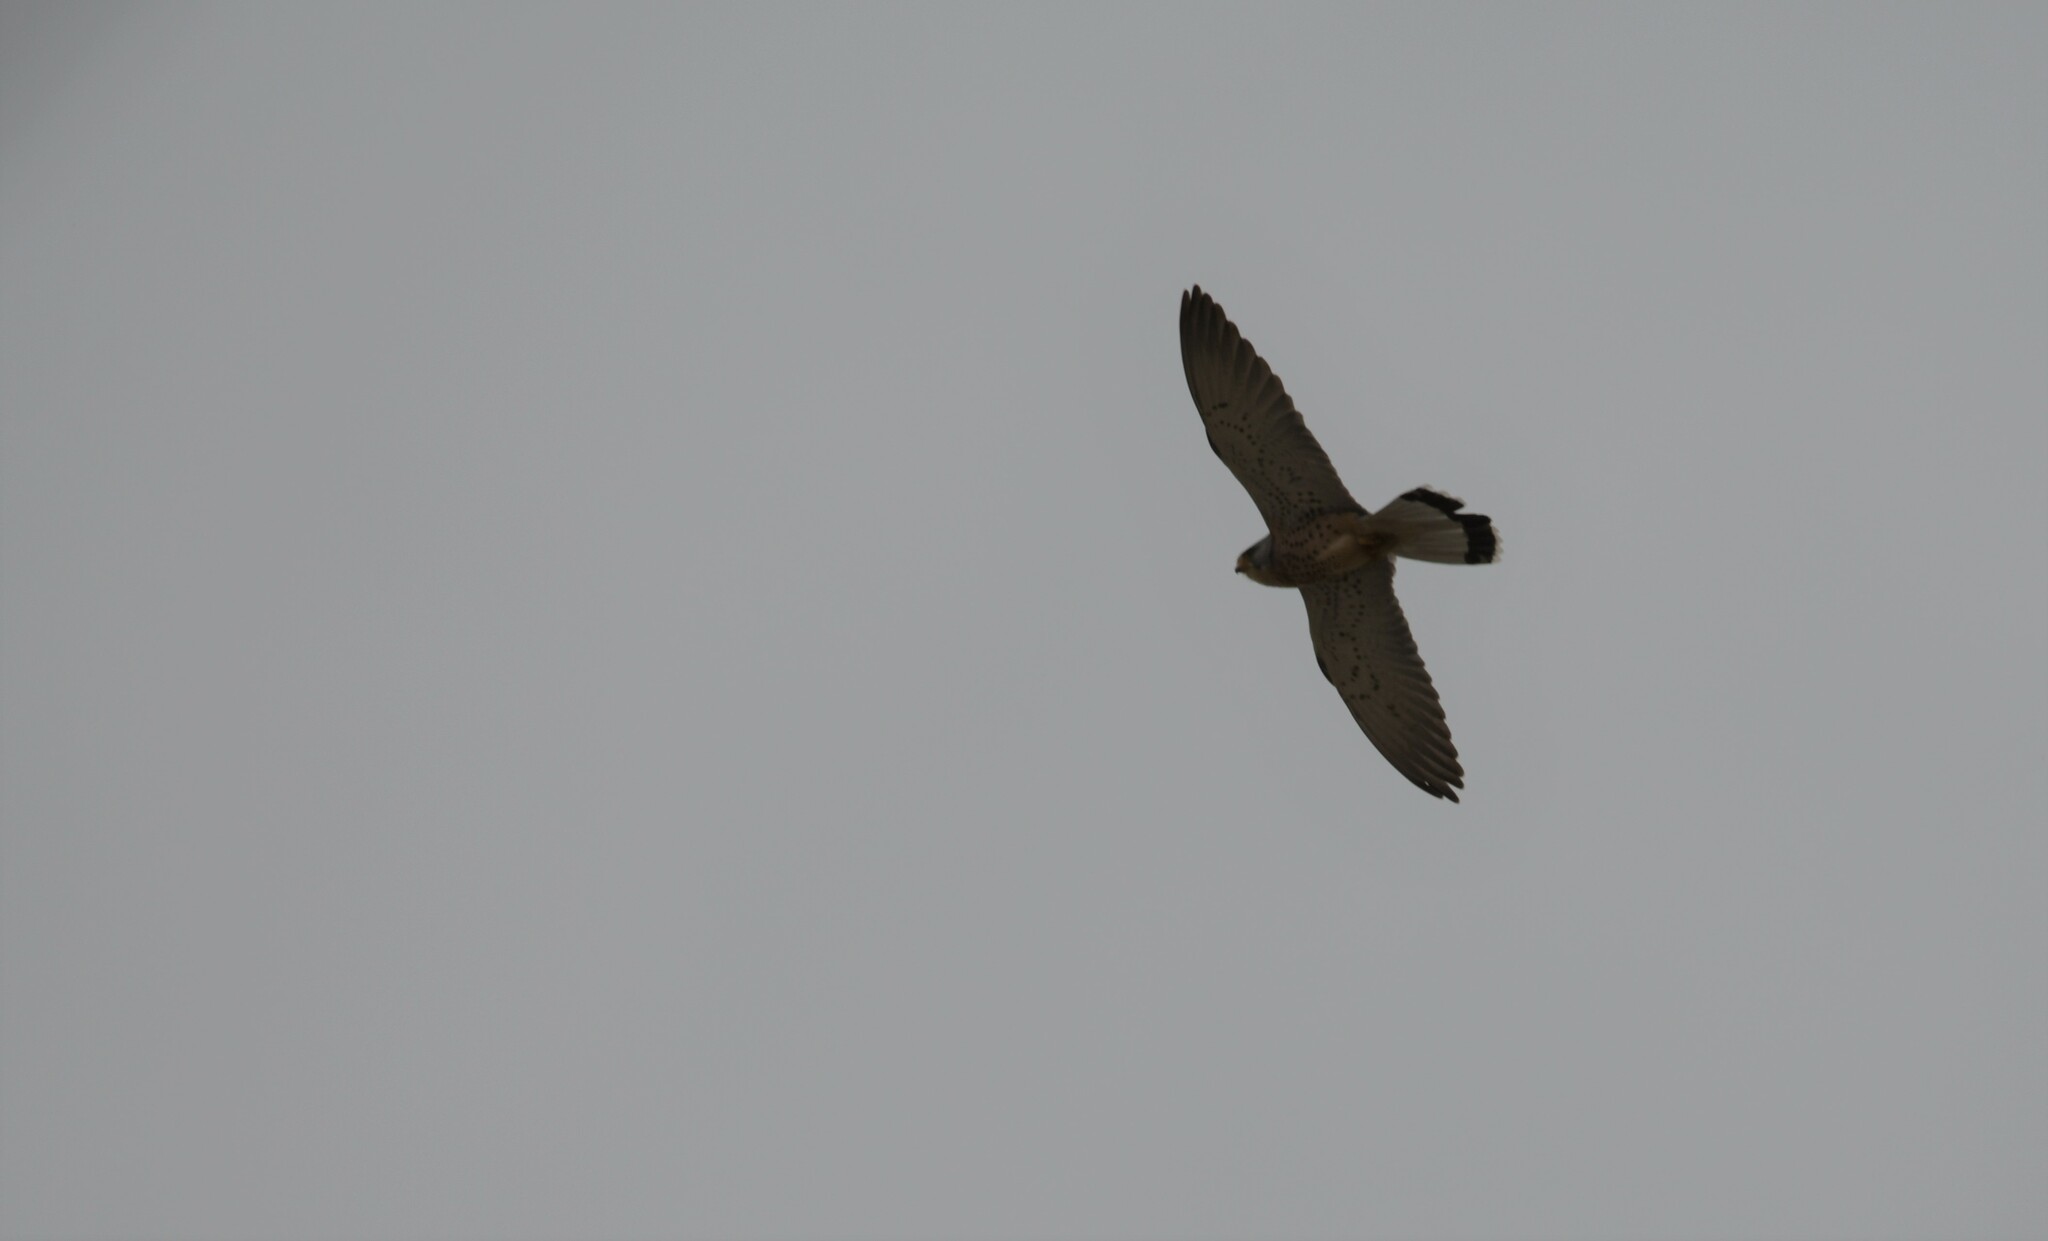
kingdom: Animalia
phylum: Chordata
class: Aves
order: Falconiformes
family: Falconidae
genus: Falco
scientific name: Falco naumanni
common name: Lesser kestrel
